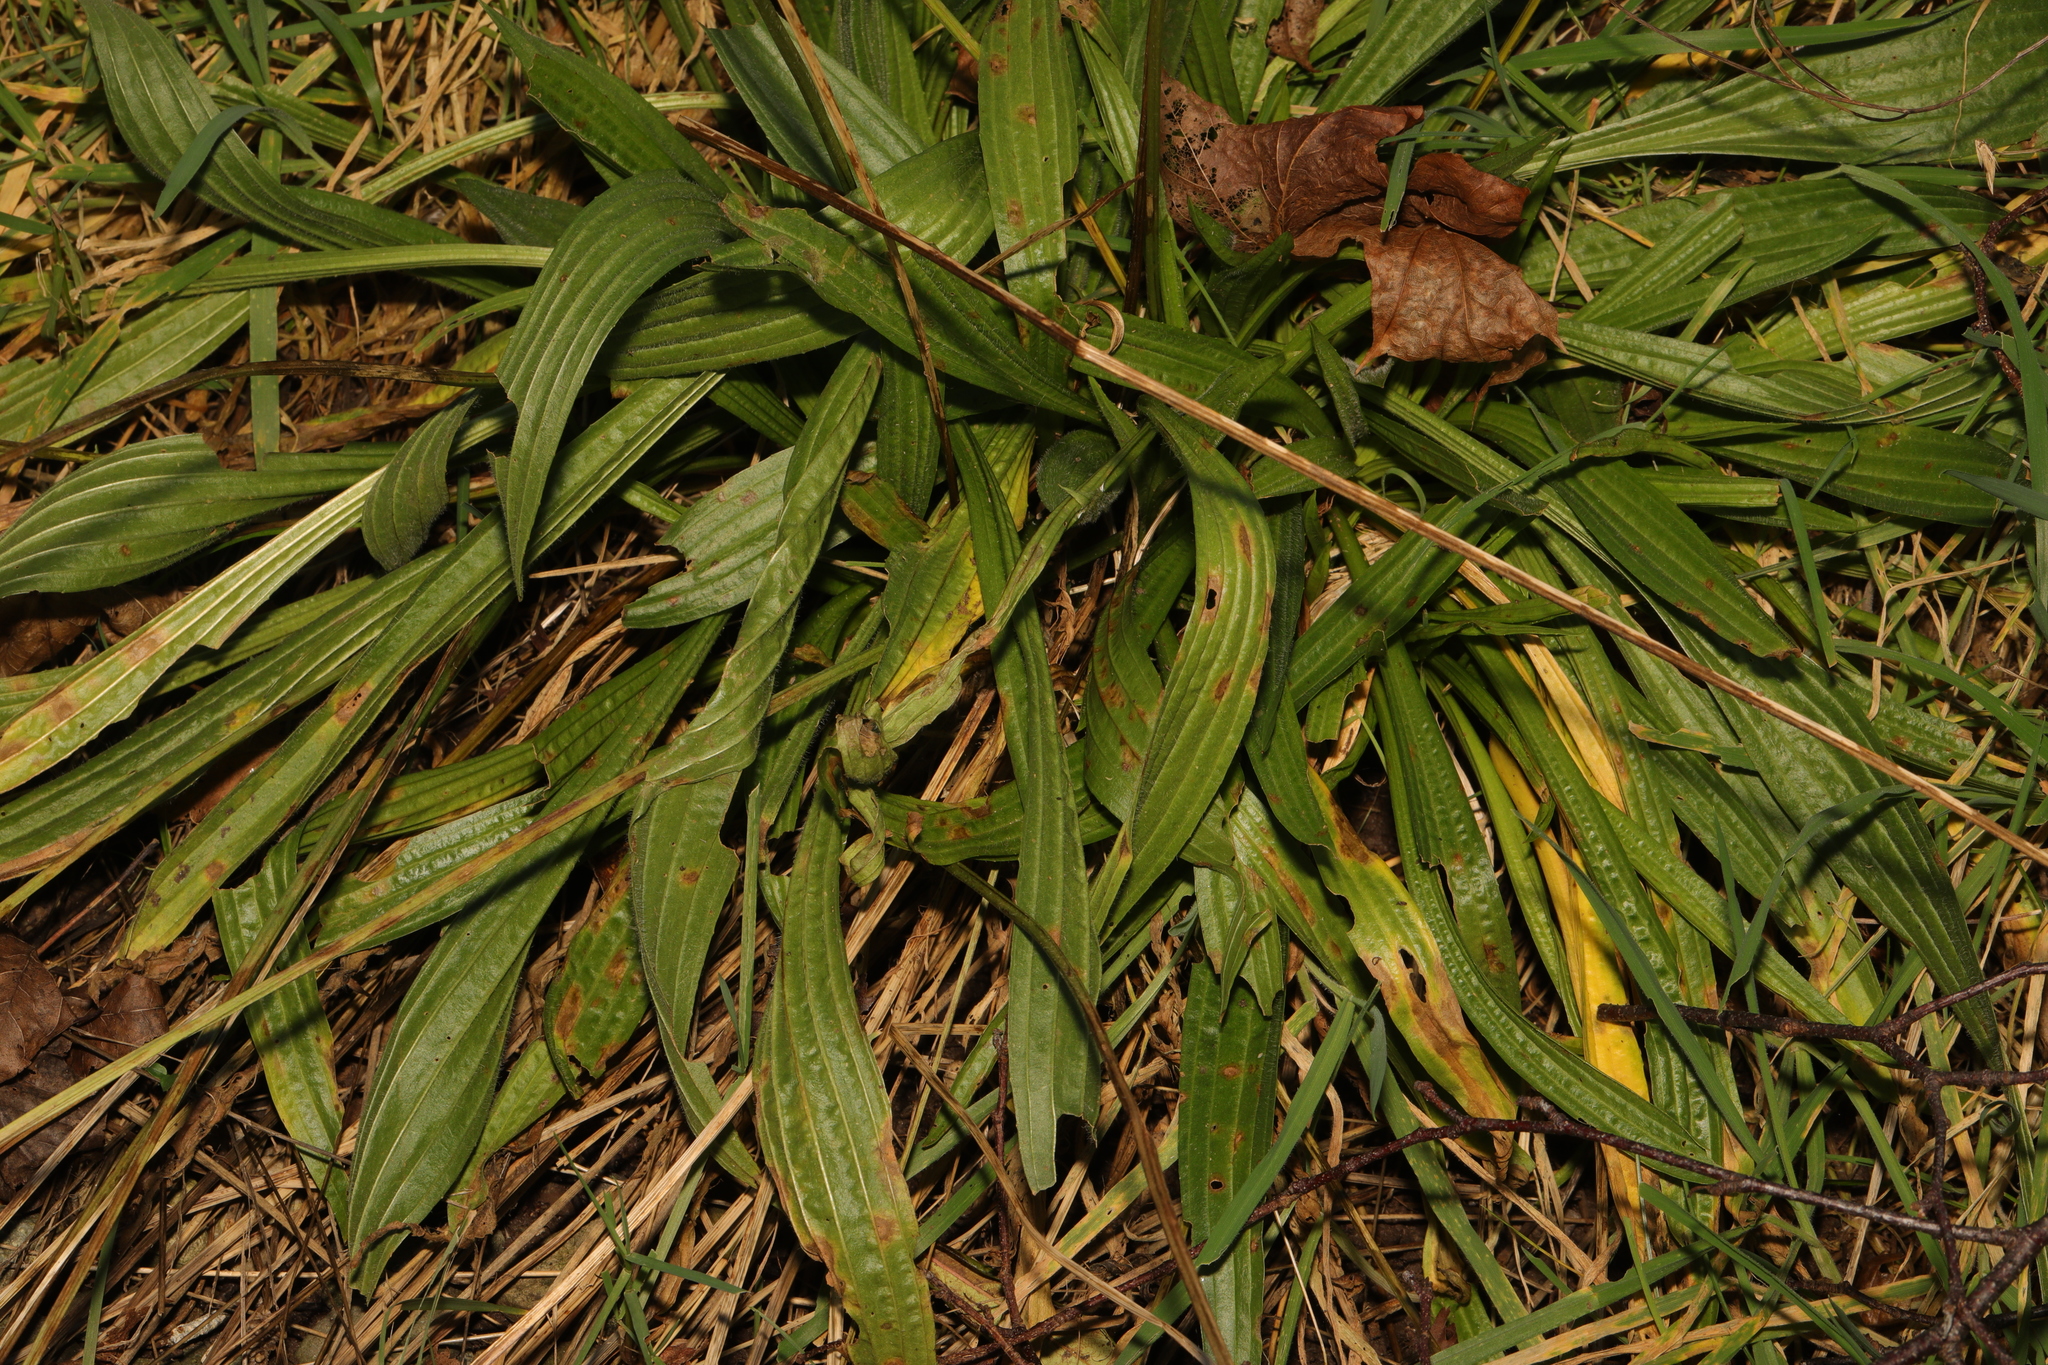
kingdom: Plantae
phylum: Tracheophyta
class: Magnoliopsida
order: Lamiales
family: Plantaginaceae
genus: Plantago
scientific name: Plantago lanceolata
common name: Ribwort plantain
